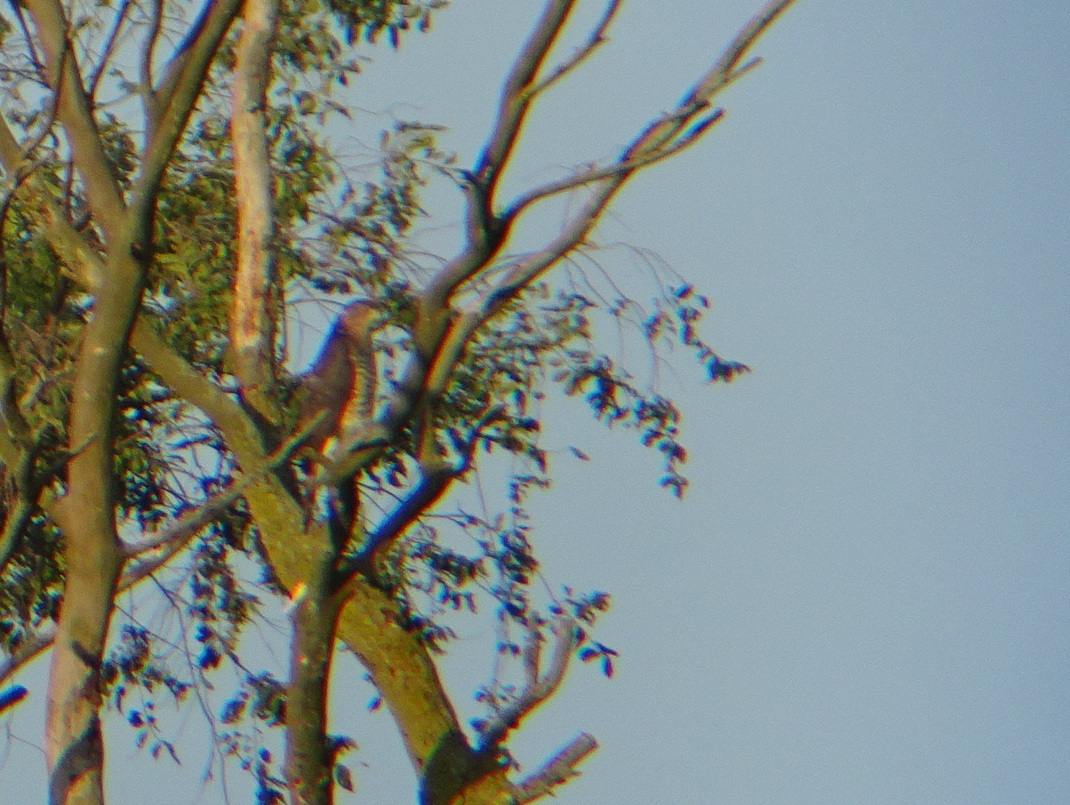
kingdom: Animalia
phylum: Chordata
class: Aves
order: Accipitriformes
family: Accipitridae
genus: Accipiter
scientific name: Accipiter cooperii
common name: Cooper's hawk
